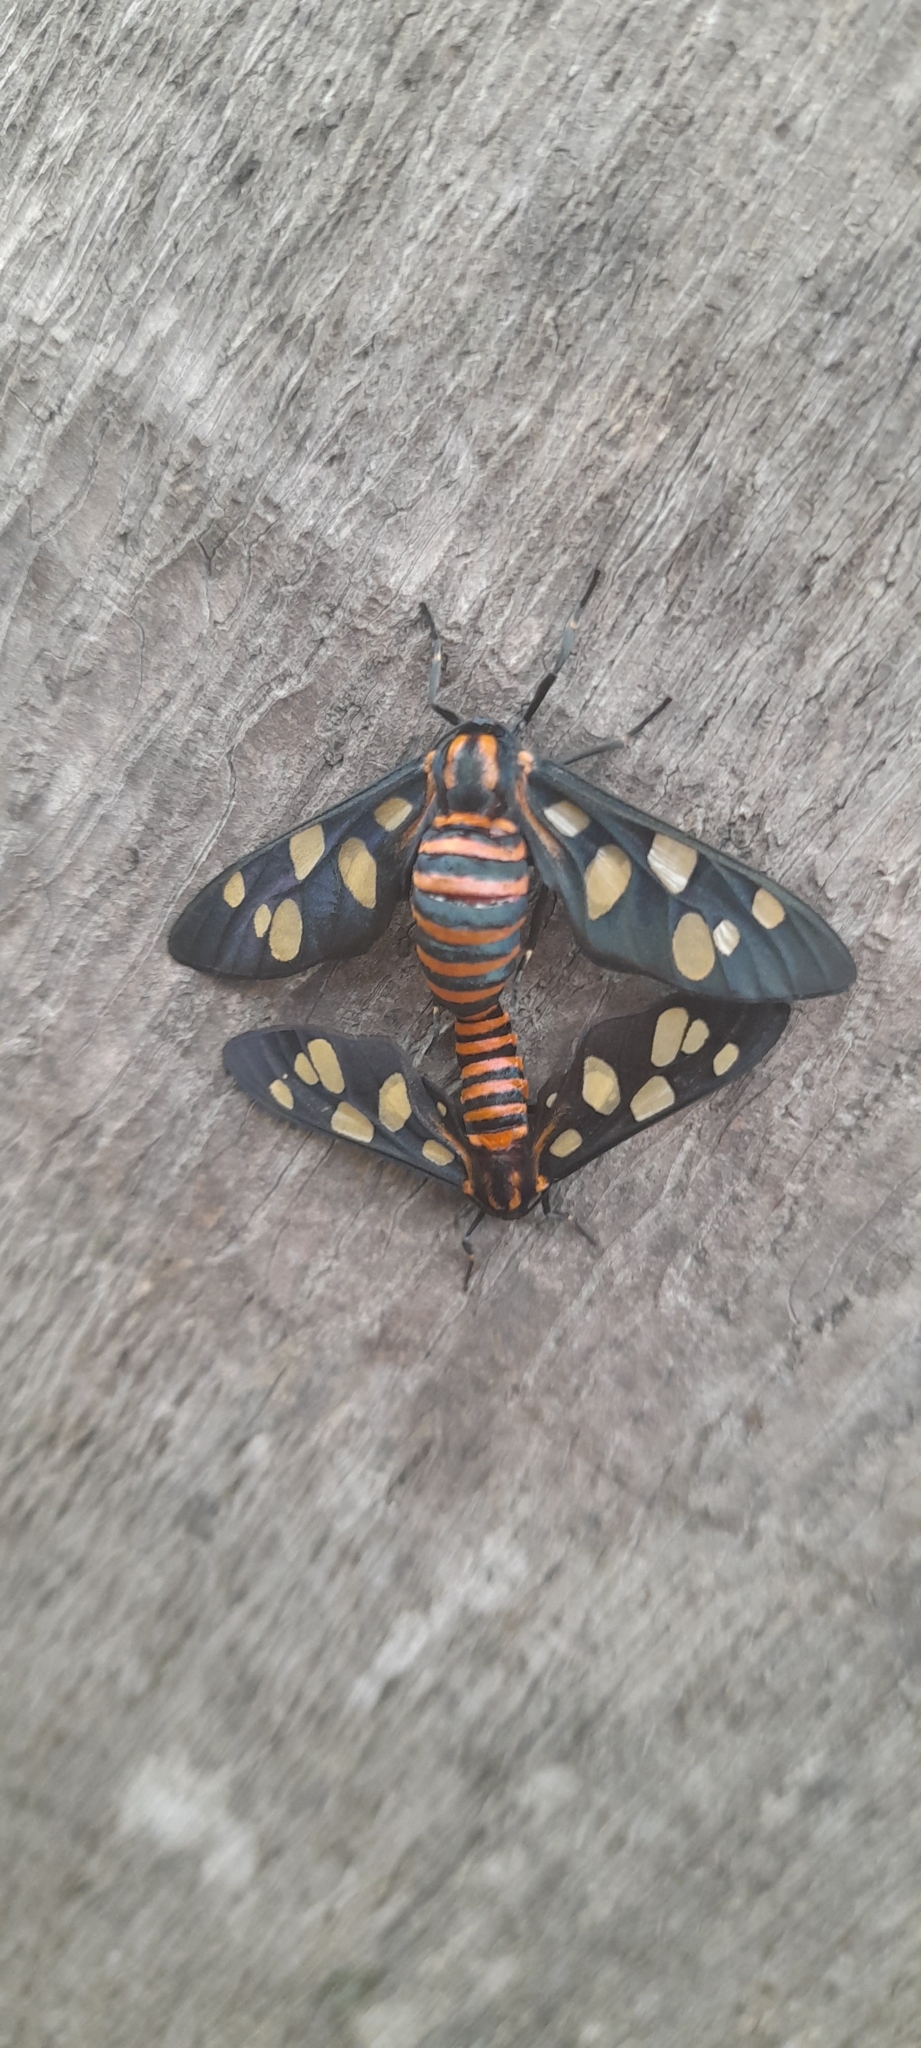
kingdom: Animalia
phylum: Arthropoda
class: Insecta
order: Lepidoptera
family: Erebidae
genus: Amata
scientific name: Amata passalis
